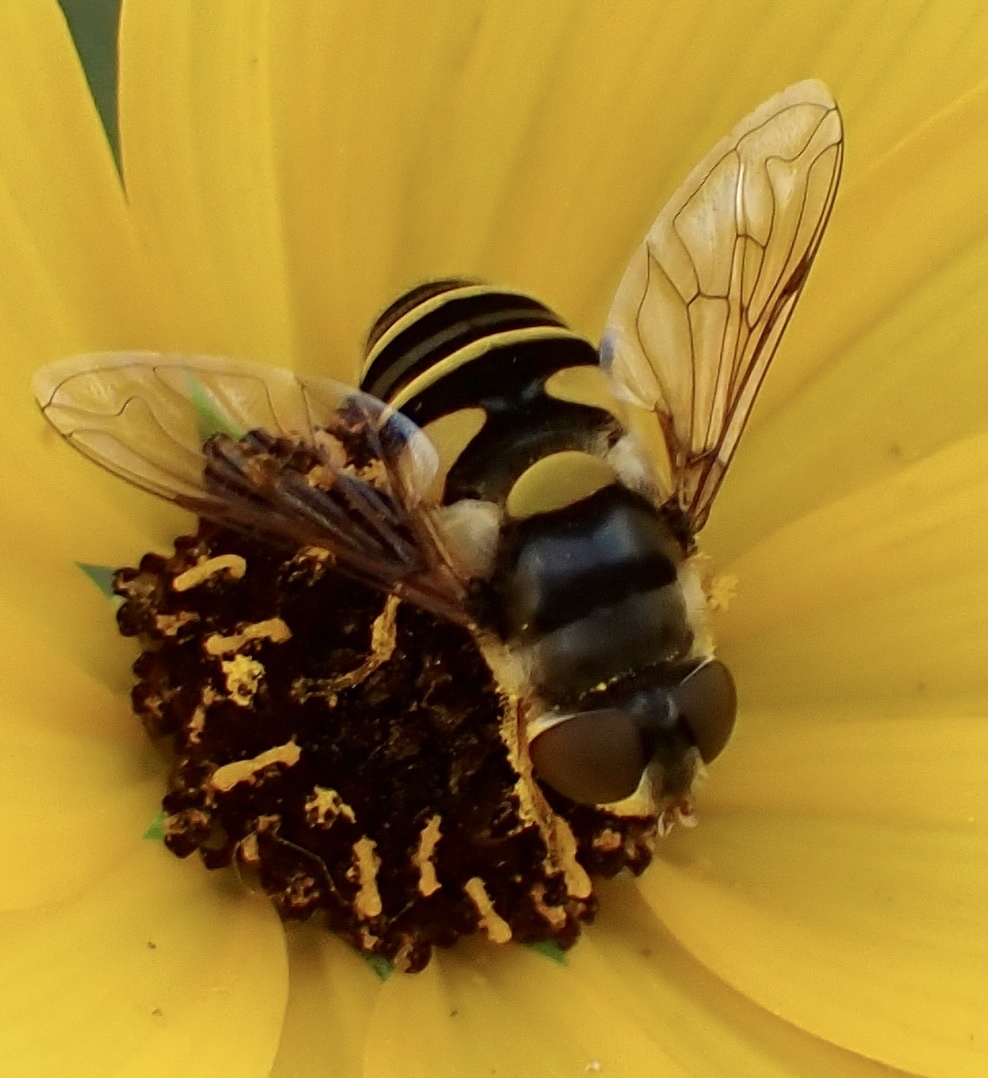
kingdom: Animalia
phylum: Arthropoda
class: Insecta
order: Diptera
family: Syrphidae
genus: Eristalis
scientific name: Eristalis transversa
